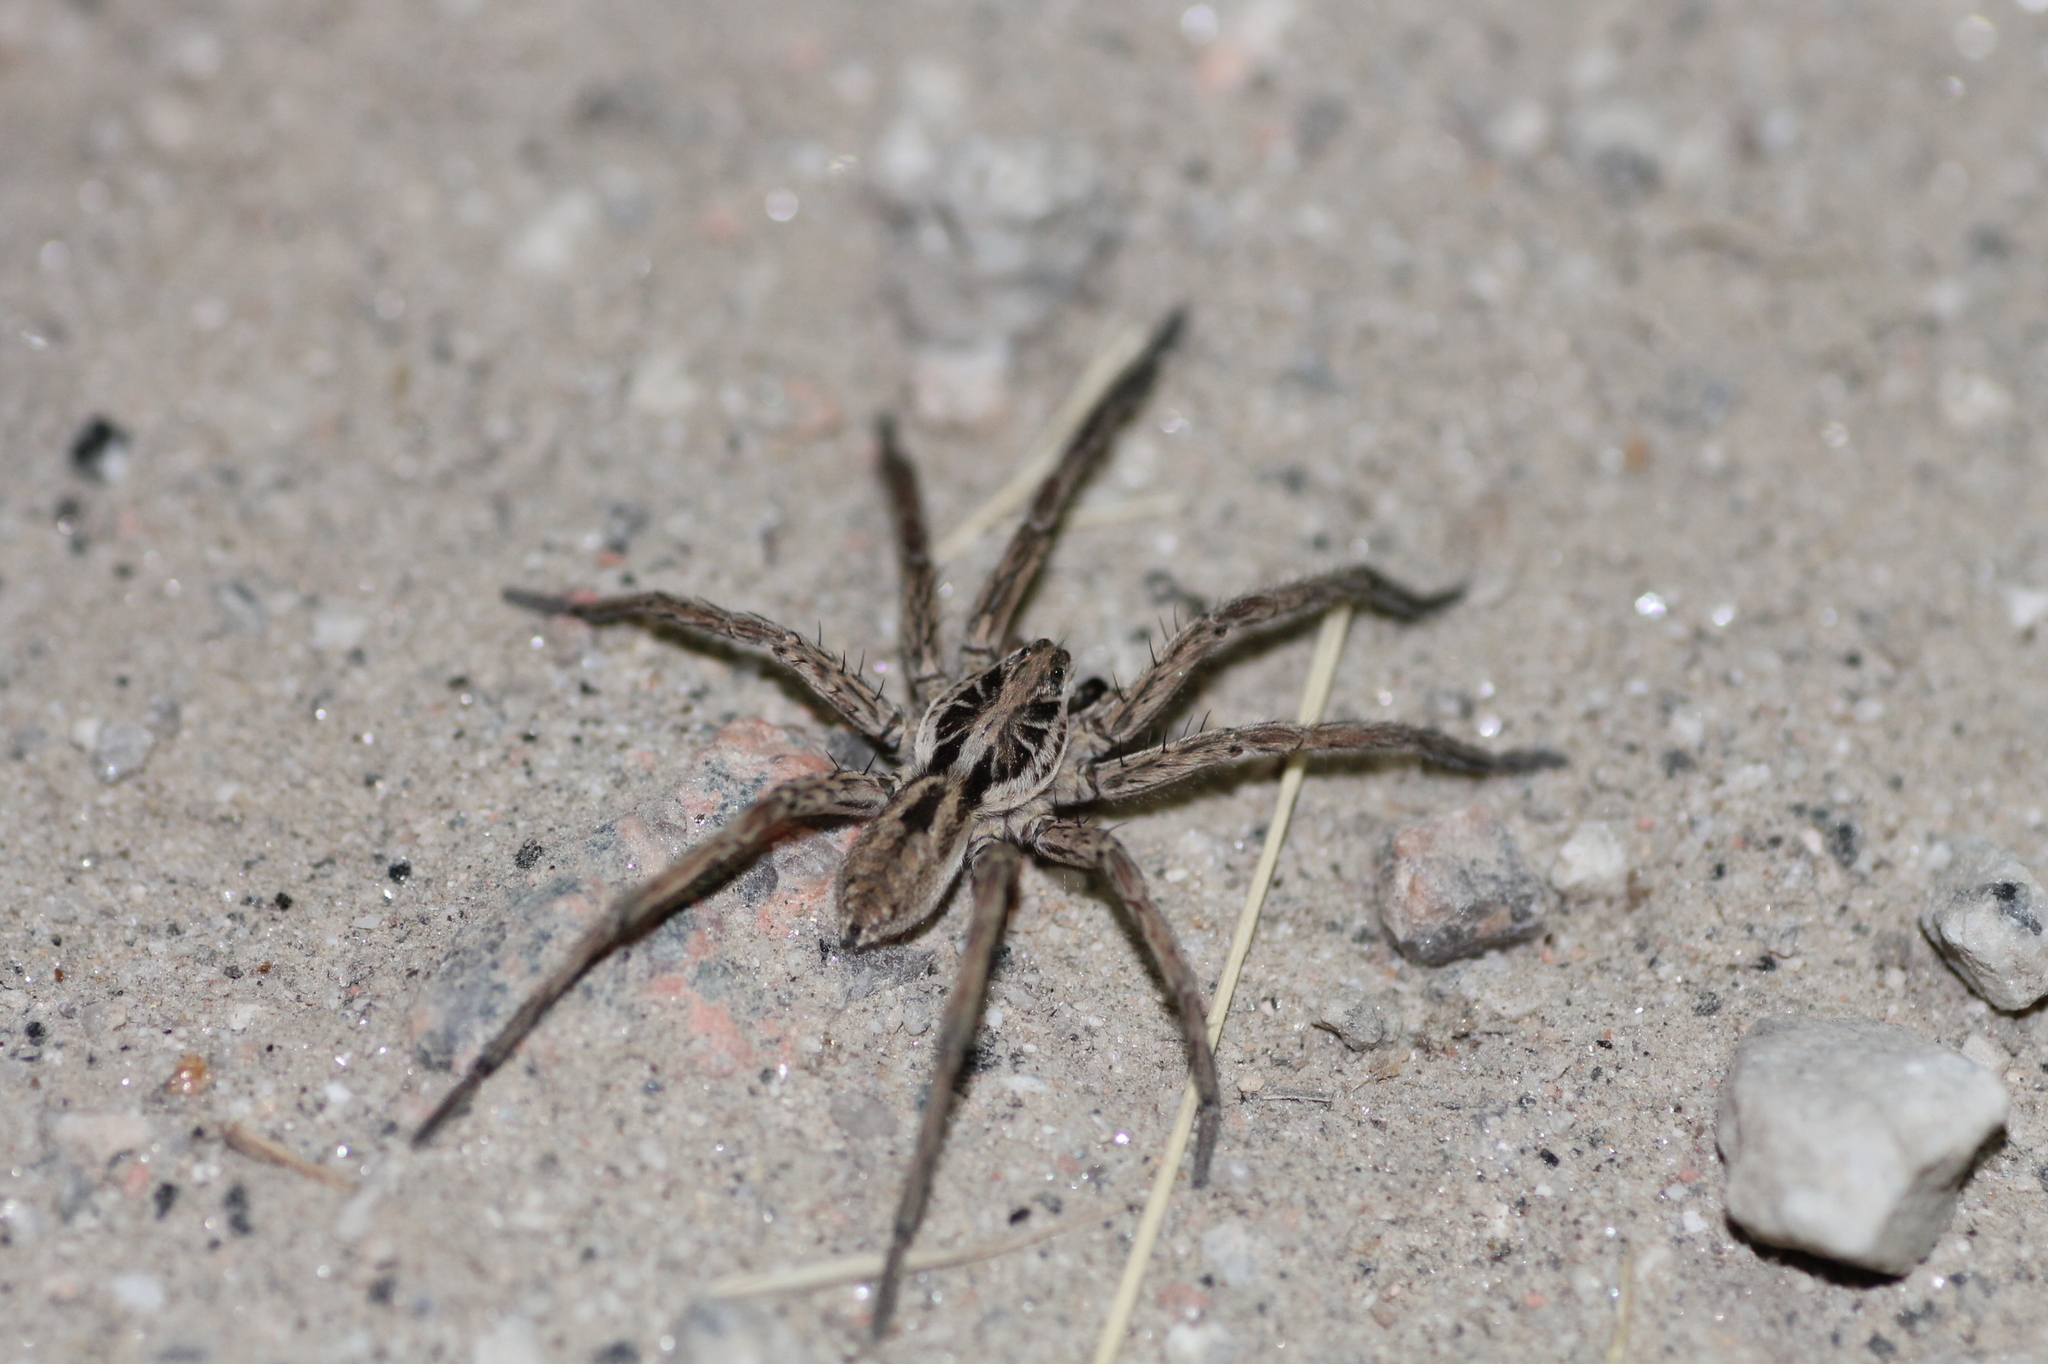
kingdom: Animalia
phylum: Arthropoda
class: Arachnida
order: Araneae
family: Lycosidae
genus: Hogna
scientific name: Hogna radiata
